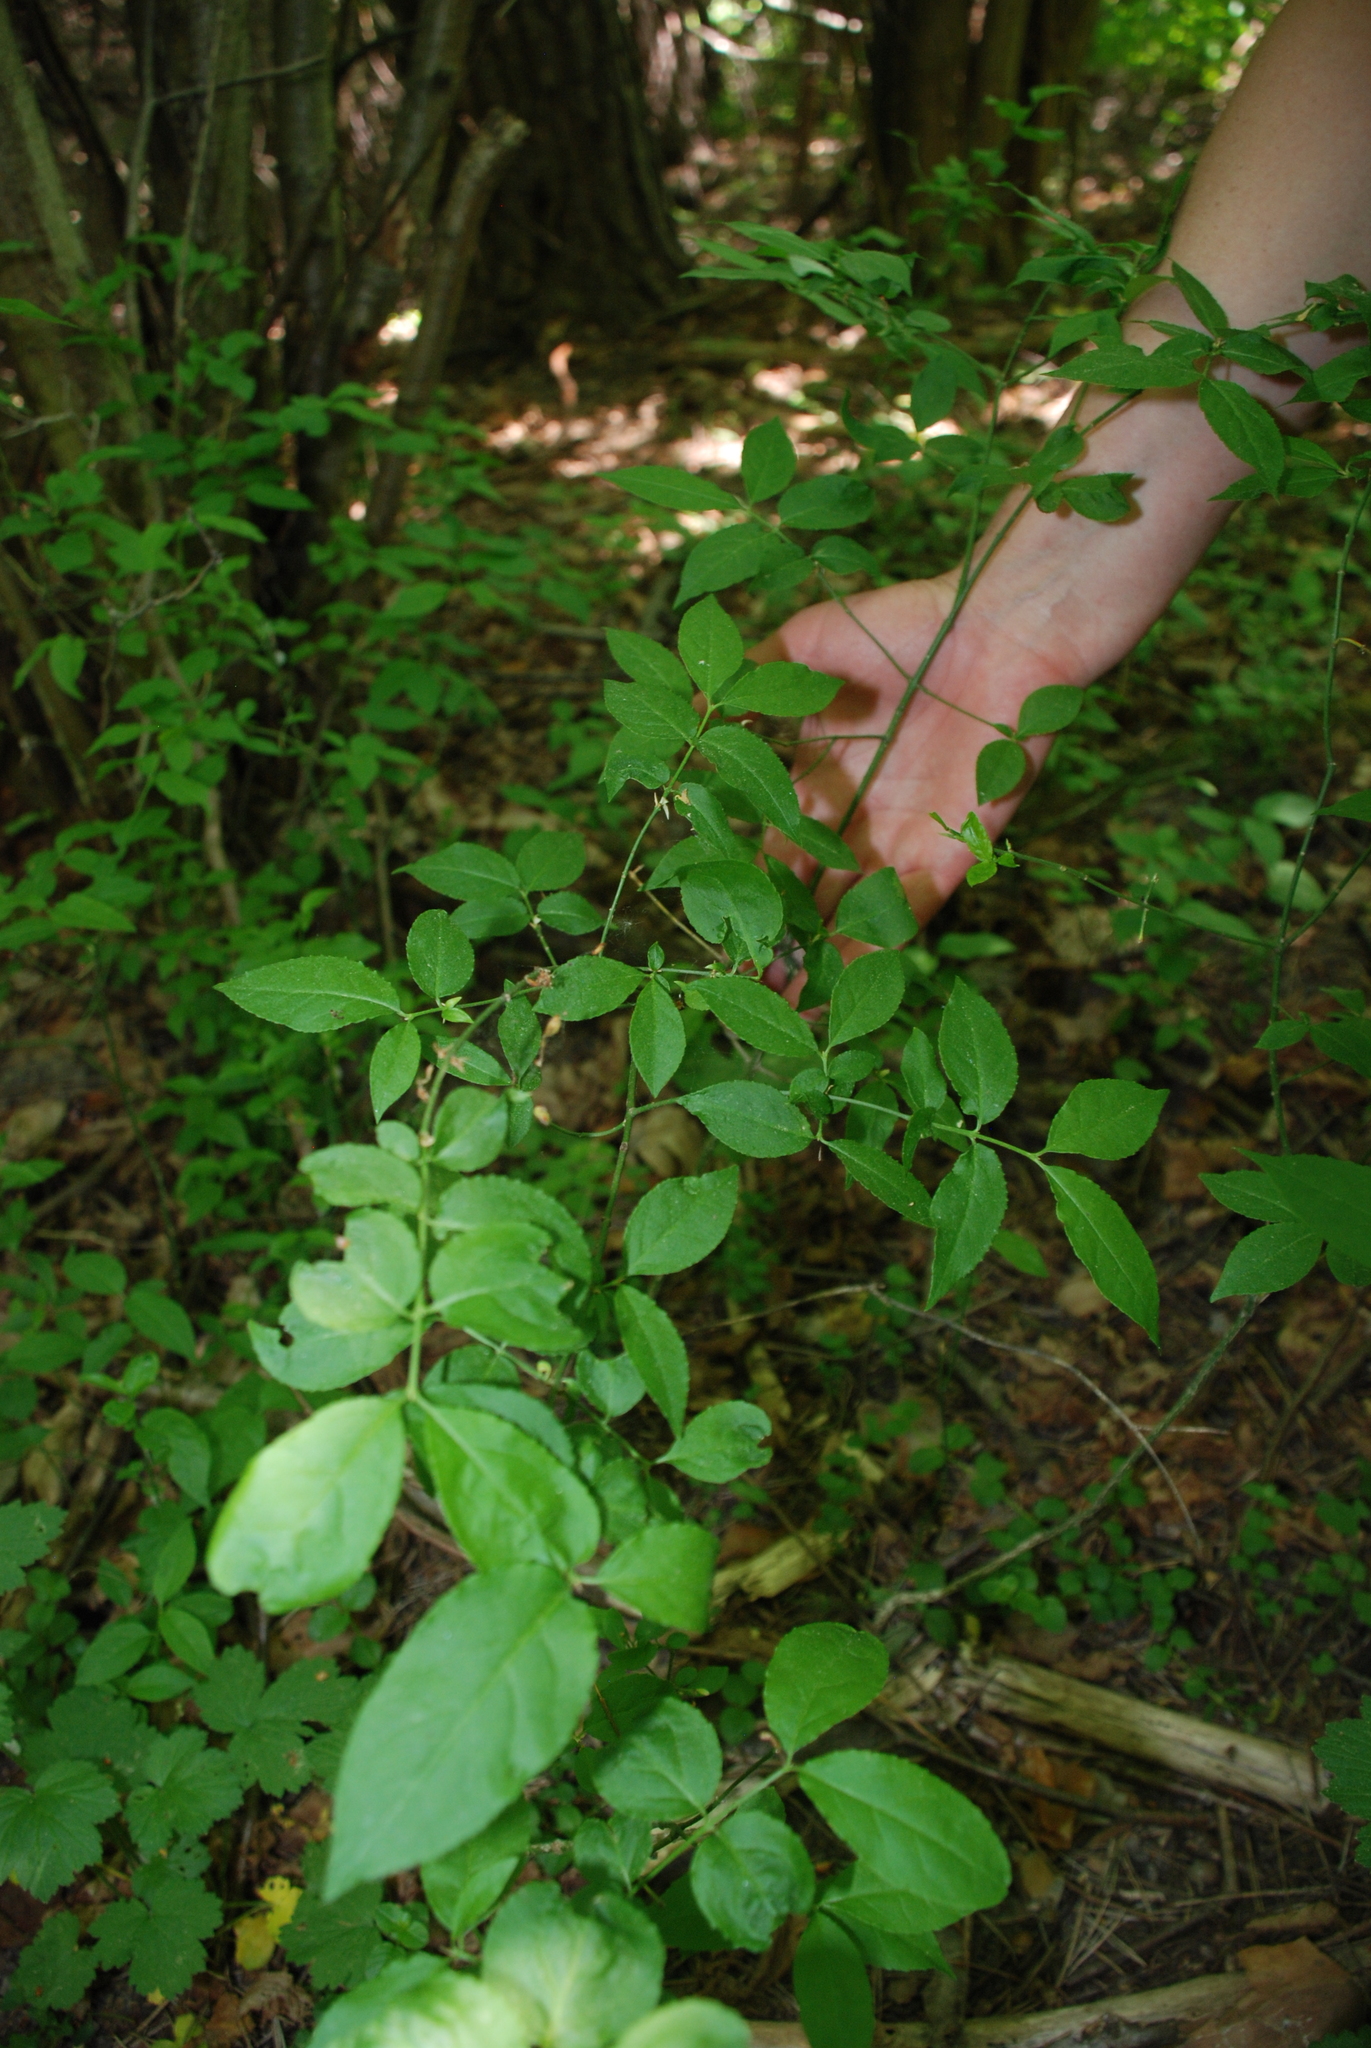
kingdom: Plantae
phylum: Tracheophyta
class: Magnoliopsida
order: Celastrales
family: Celastraceae
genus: Euonymus
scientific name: Euonymus verrucosus
